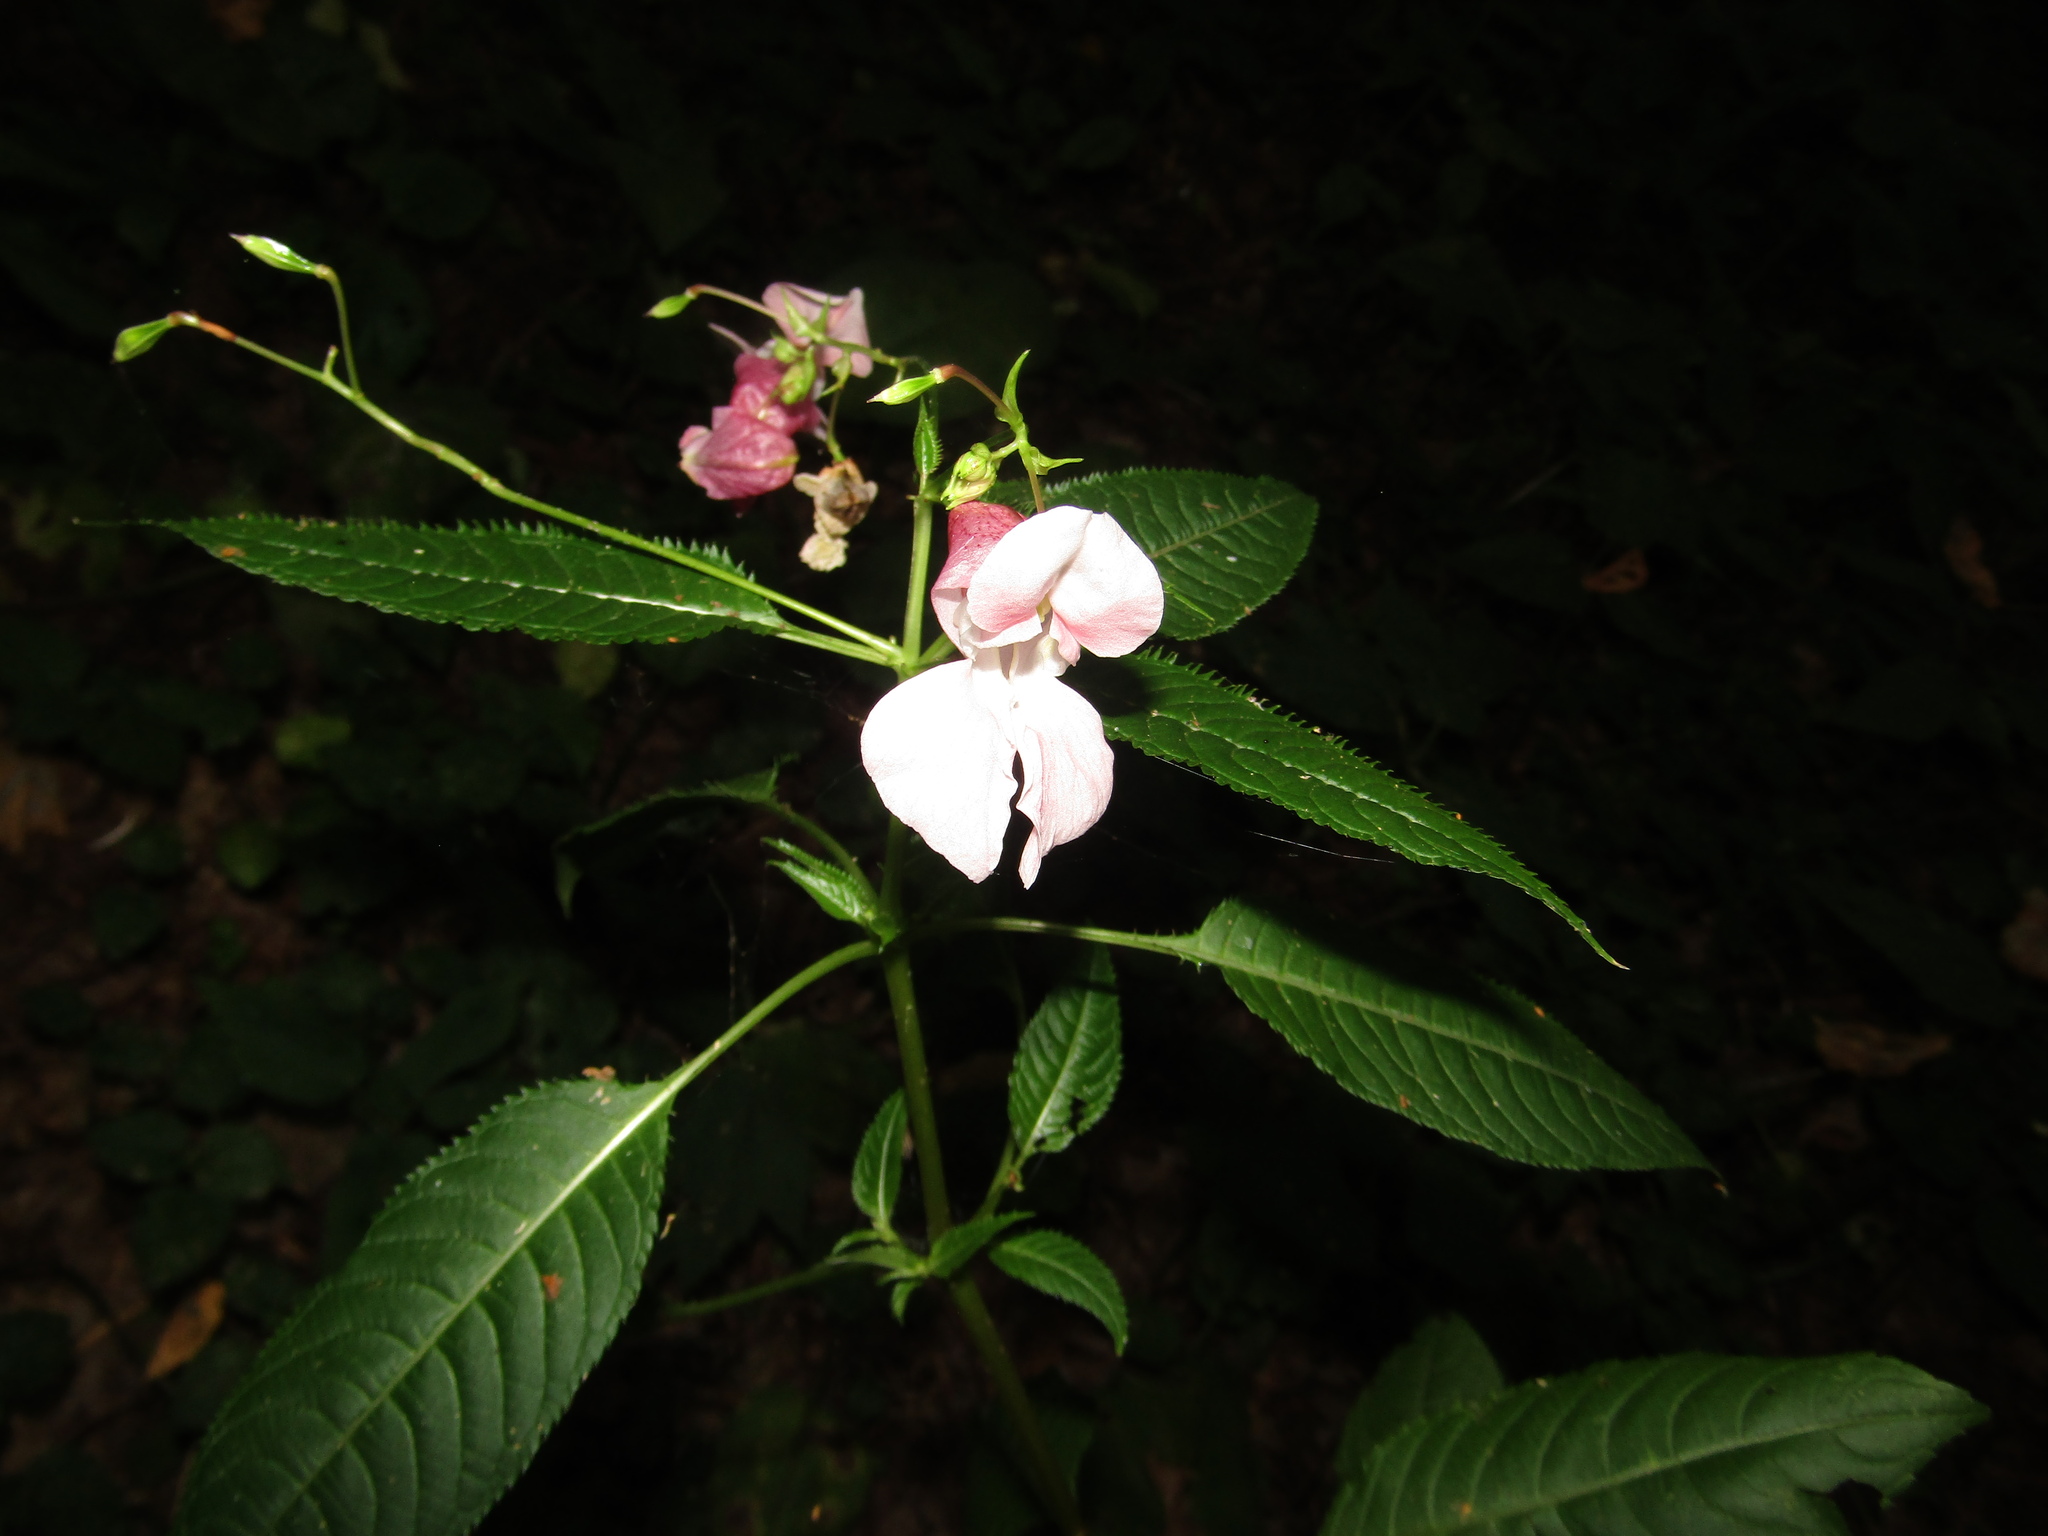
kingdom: Plantae
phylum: Tracheophyta
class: Magnoliopsida
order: Ericales
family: Balsaminaceae
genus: Impatiens
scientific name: Impatiens glandulifera
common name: Himalayan balsam
